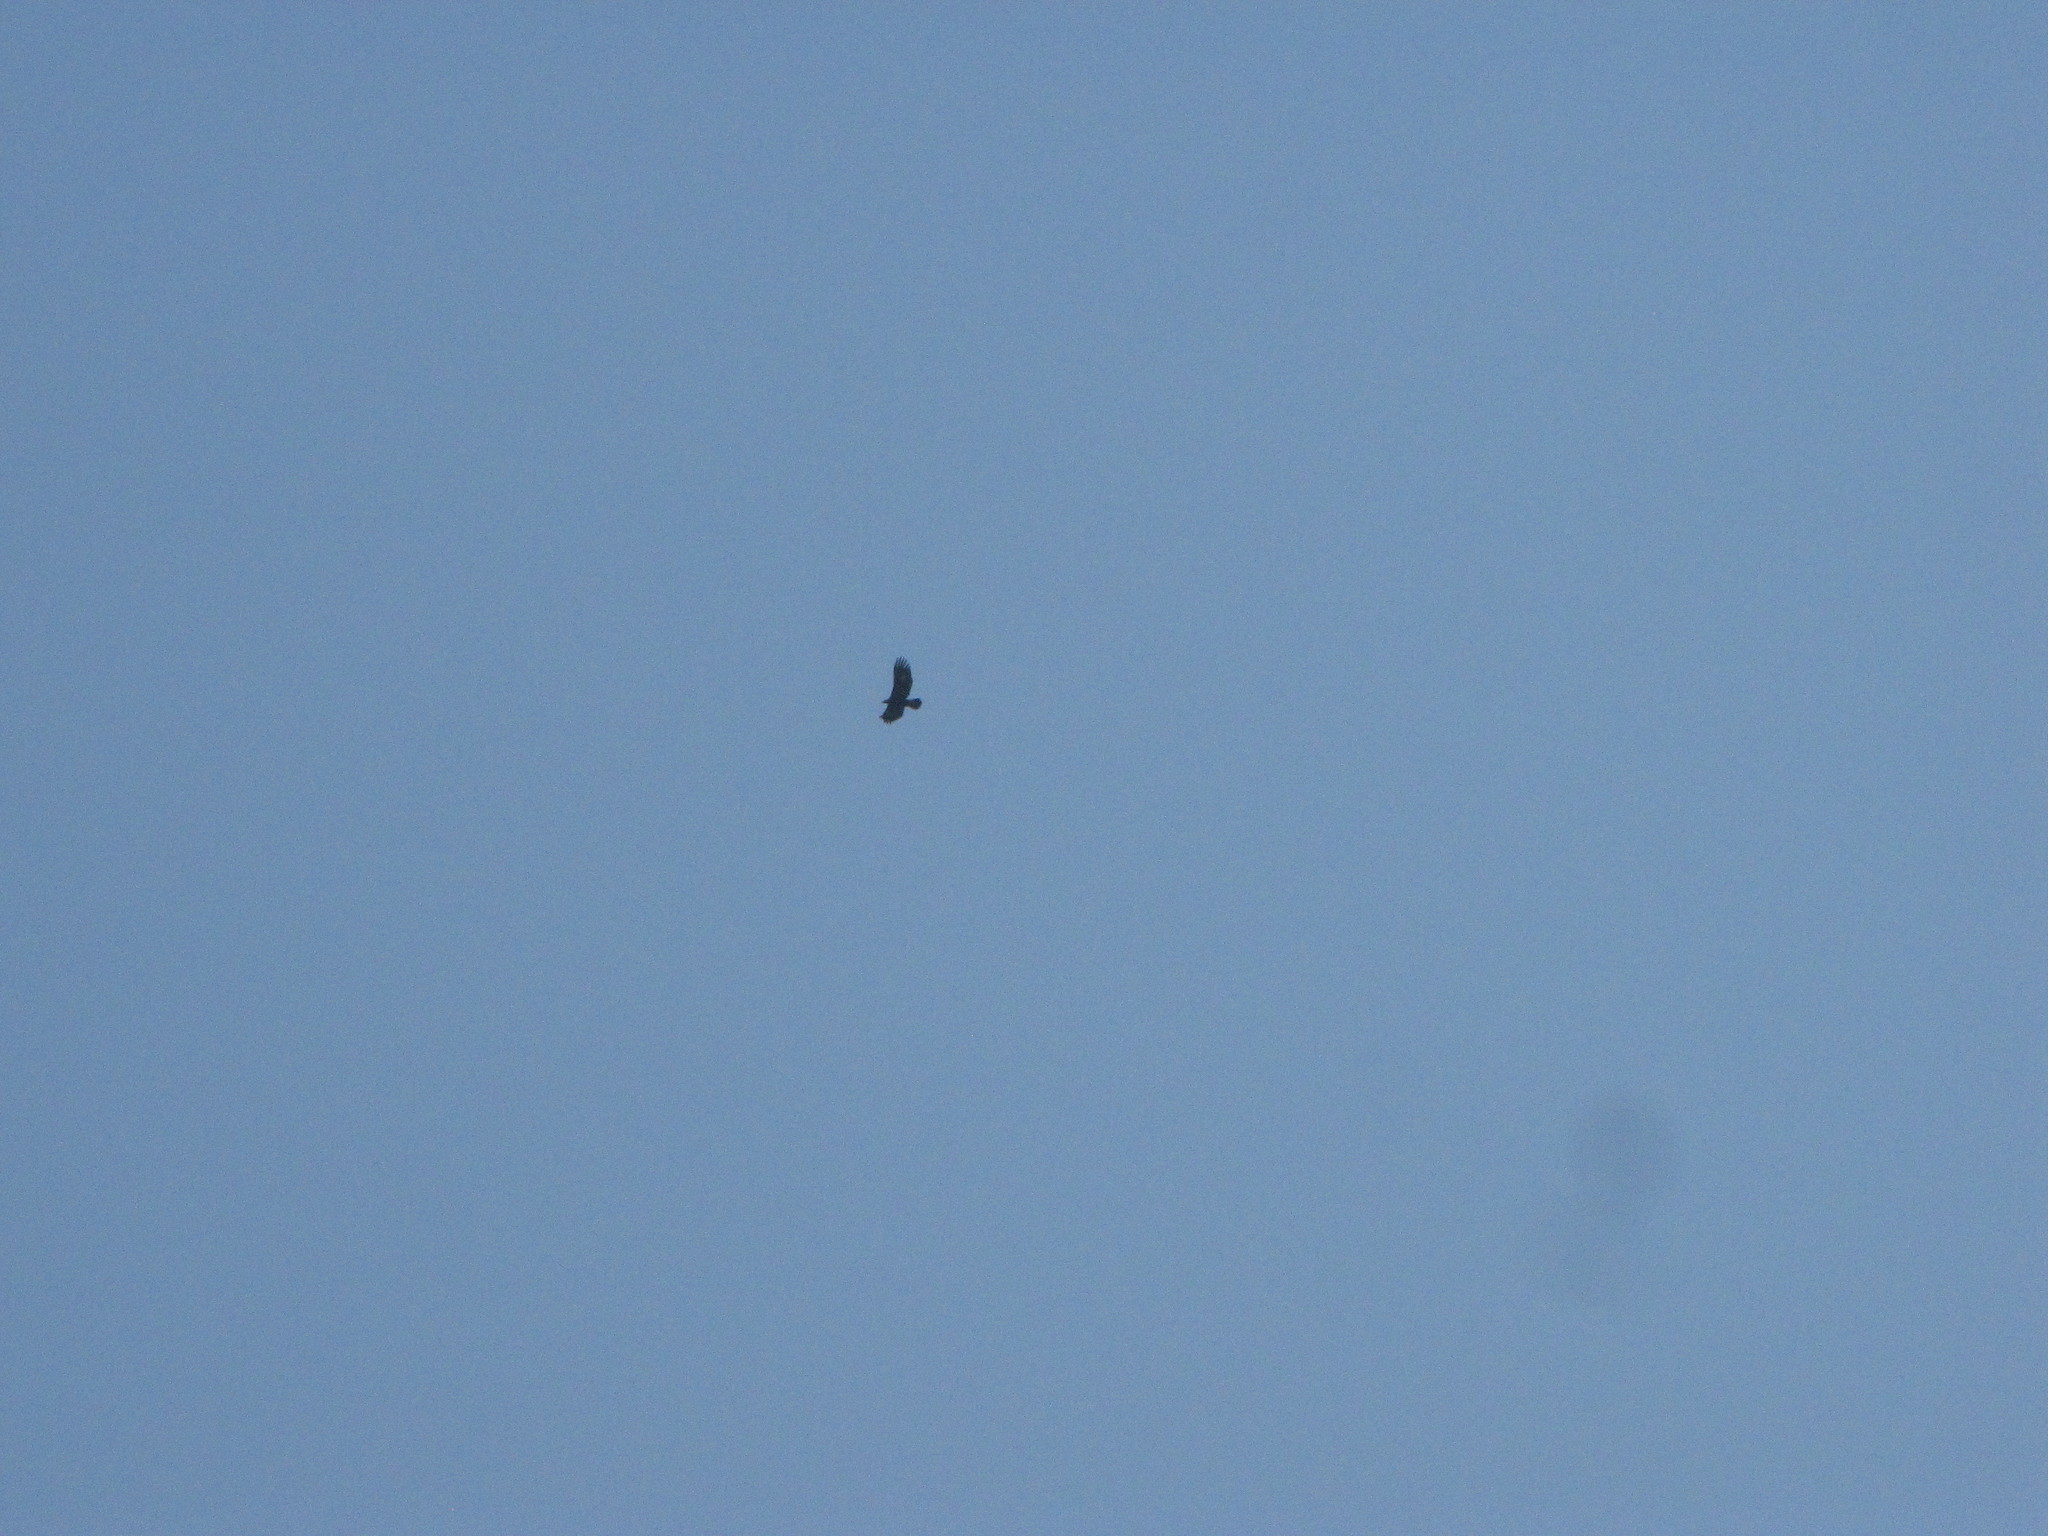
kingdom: Animalia
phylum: Chordata
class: Aves
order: Accipitriformes
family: Accipitridae
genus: Aquila
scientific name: Aquila chrysaetos
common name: Golden eagle
